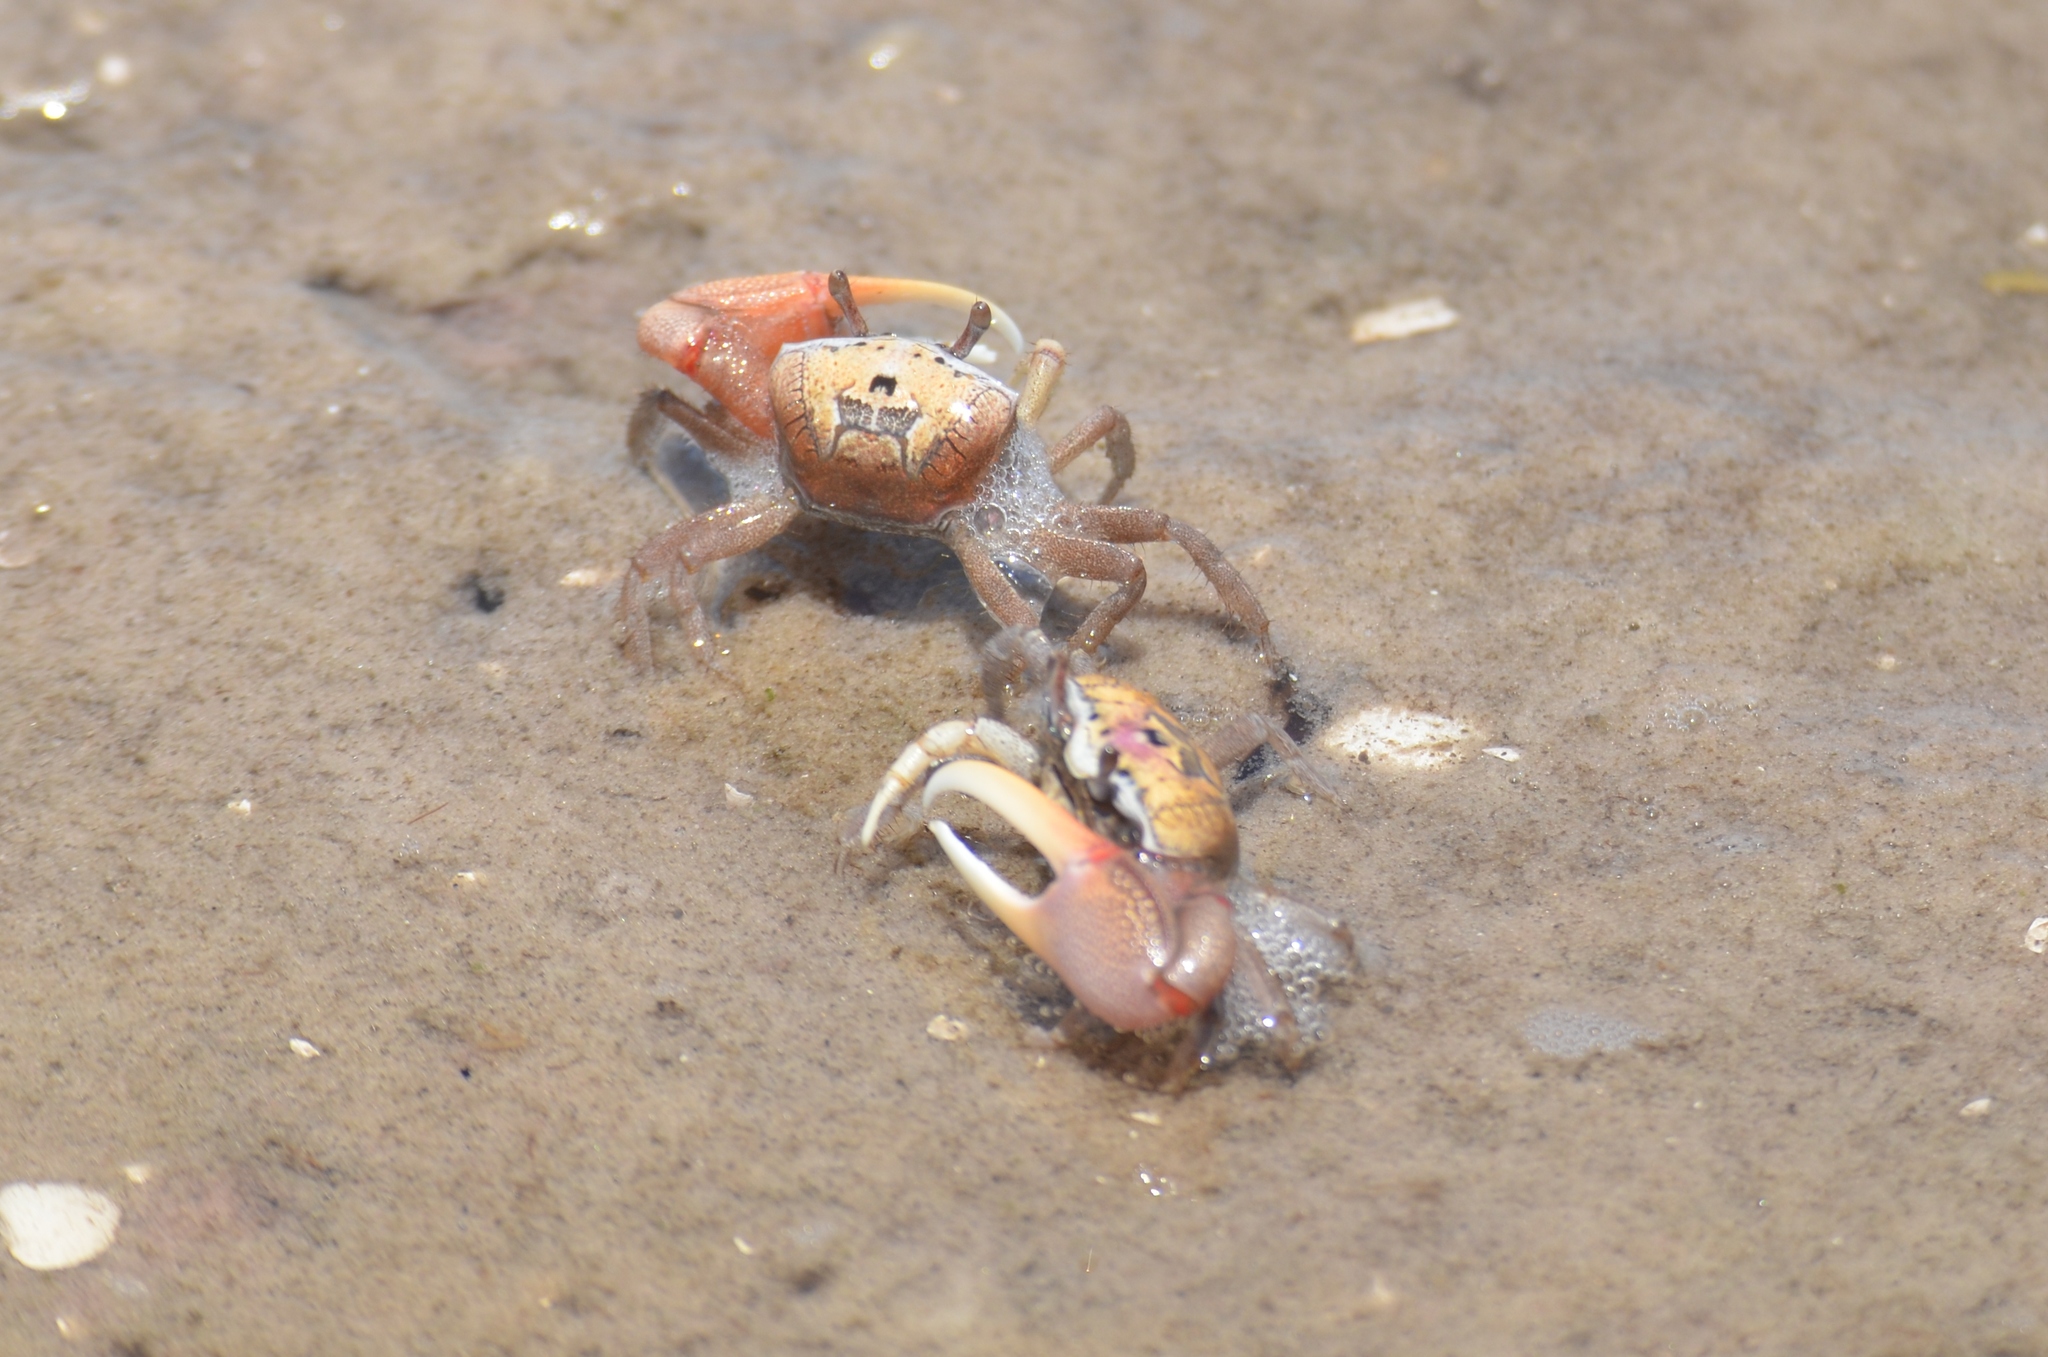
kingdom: Animalia
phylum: Arthropoda
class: Malacostraca
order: Decapoda
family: Ocypodidae
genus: Leptuca
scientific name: Leptuca pugilator
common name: Atlantic sand fiddler crab
